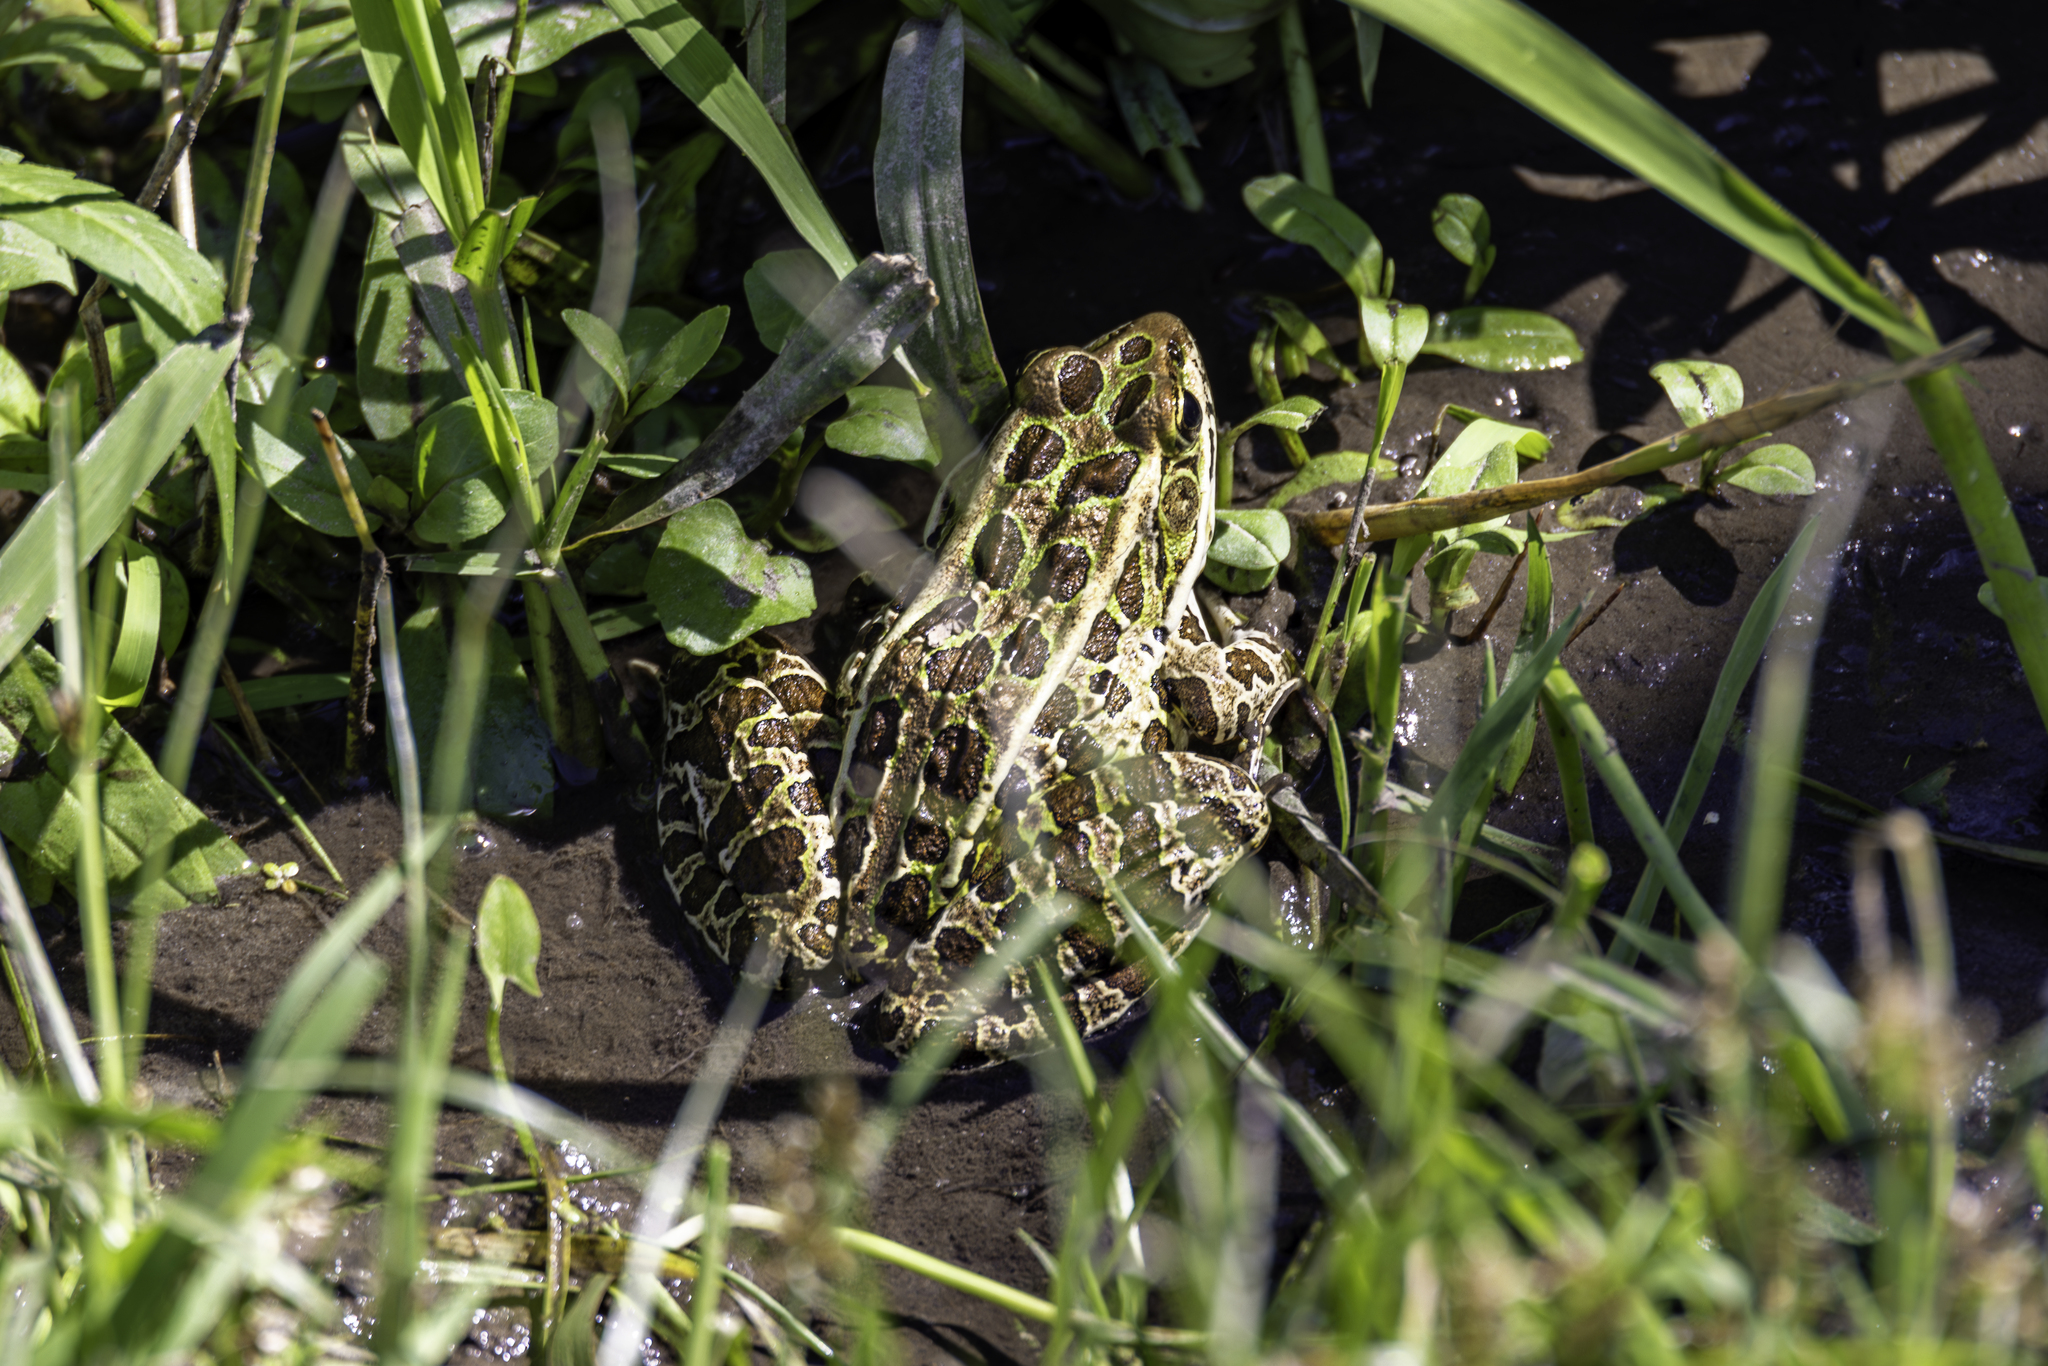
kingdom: Animalia
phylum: Chordata
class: Amphibia
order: Anura
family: Ranidae
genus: Lithobates
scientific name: Lithobates pipiens
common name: Northern leopard frog
